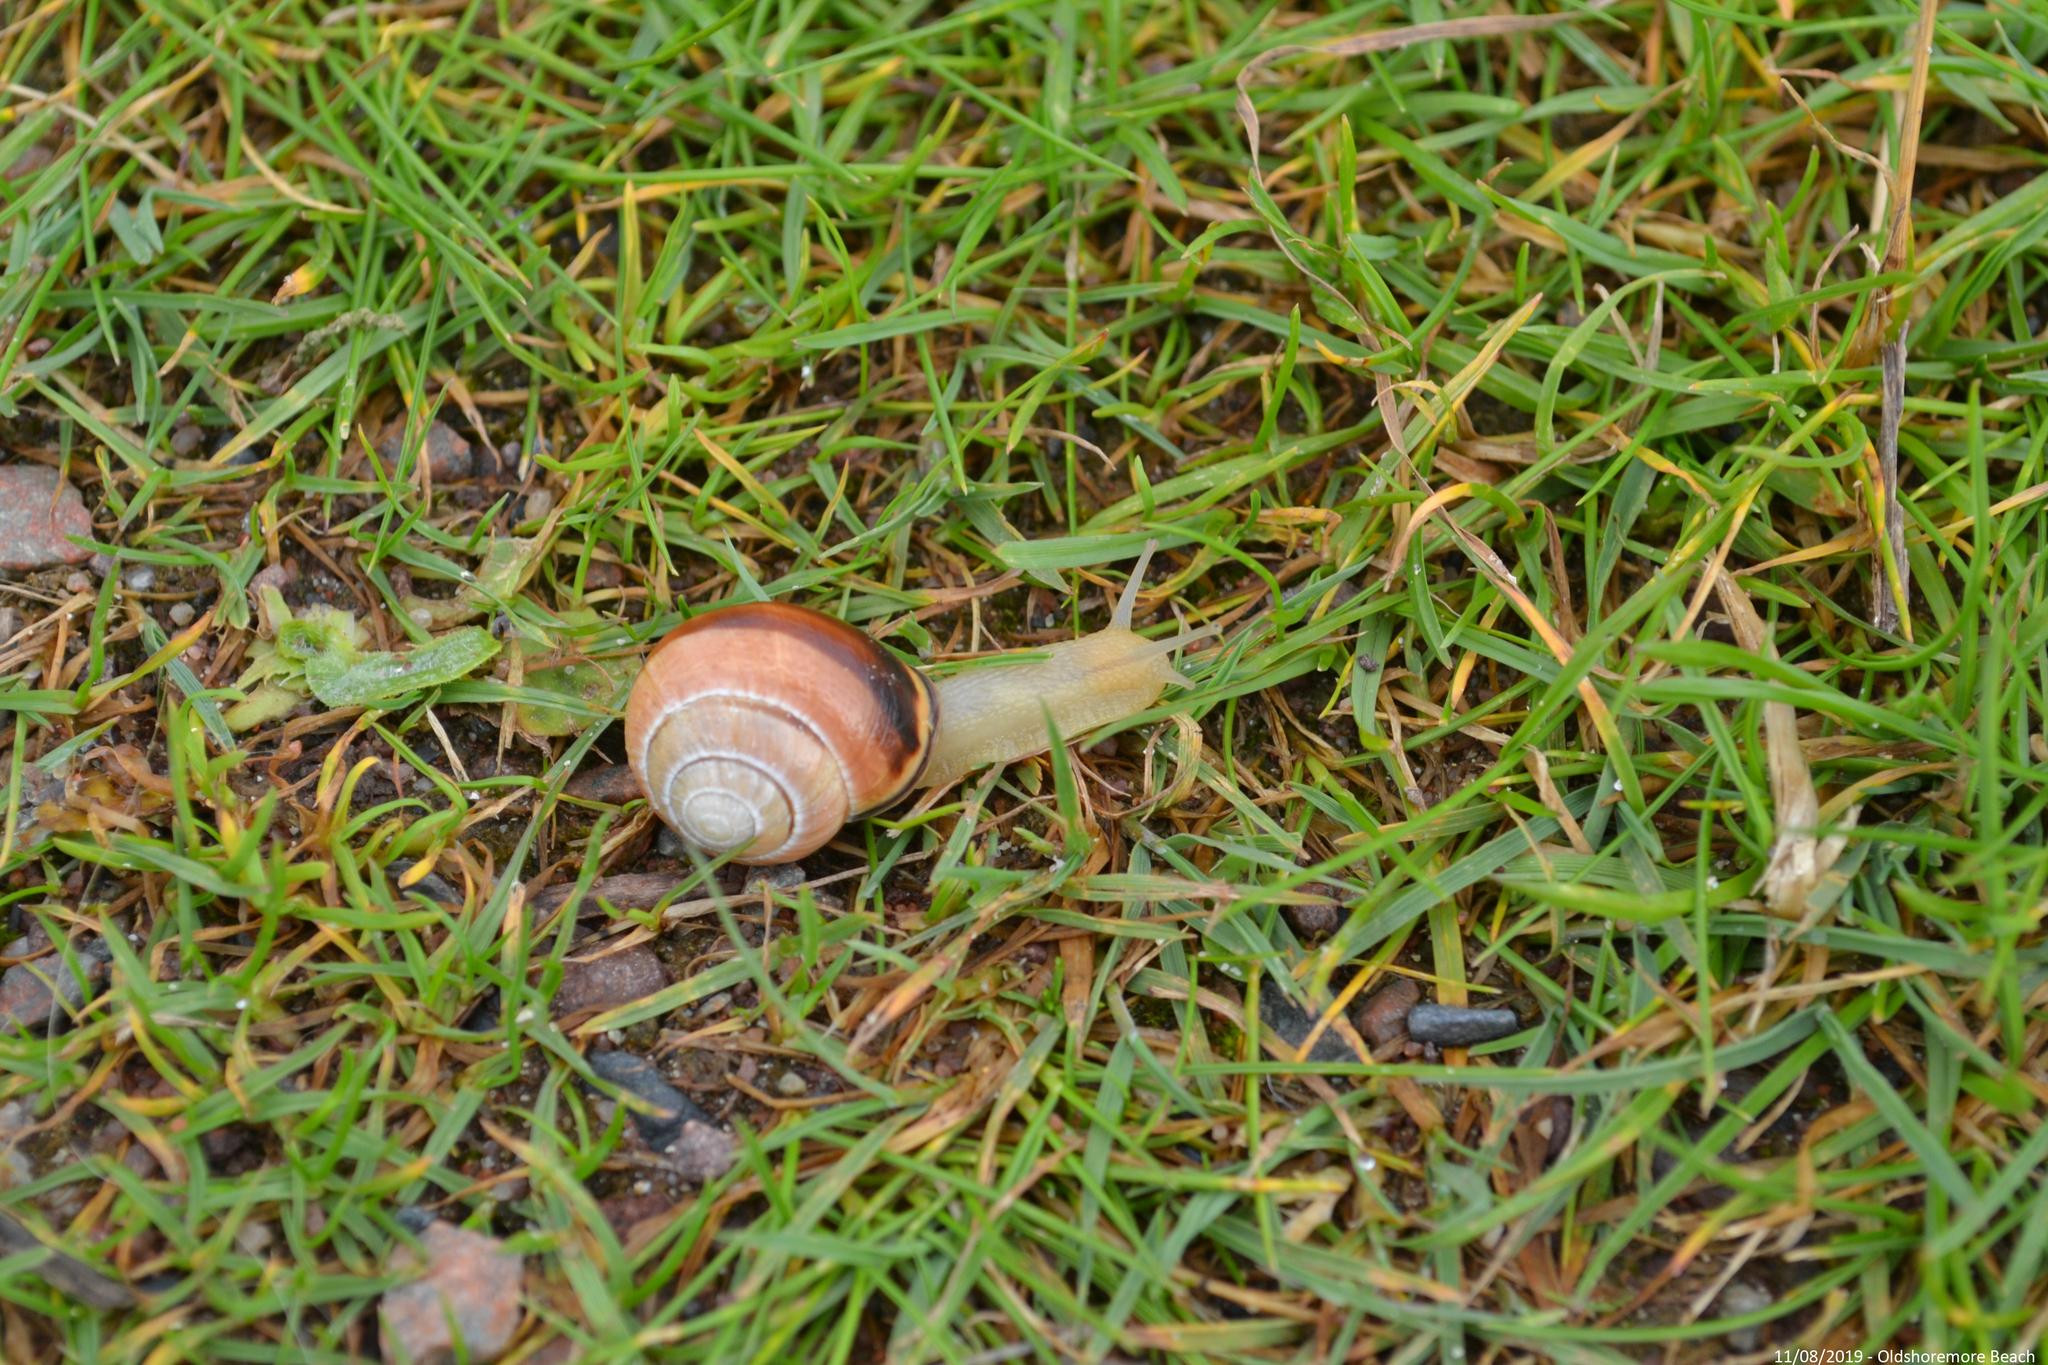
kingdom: Animalia
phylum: Mollusca
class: Gastropoda
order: Stylommatophora
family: Helicidae
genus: Cepaea
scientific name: Cepaea nemoralis
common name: Grovesnail
